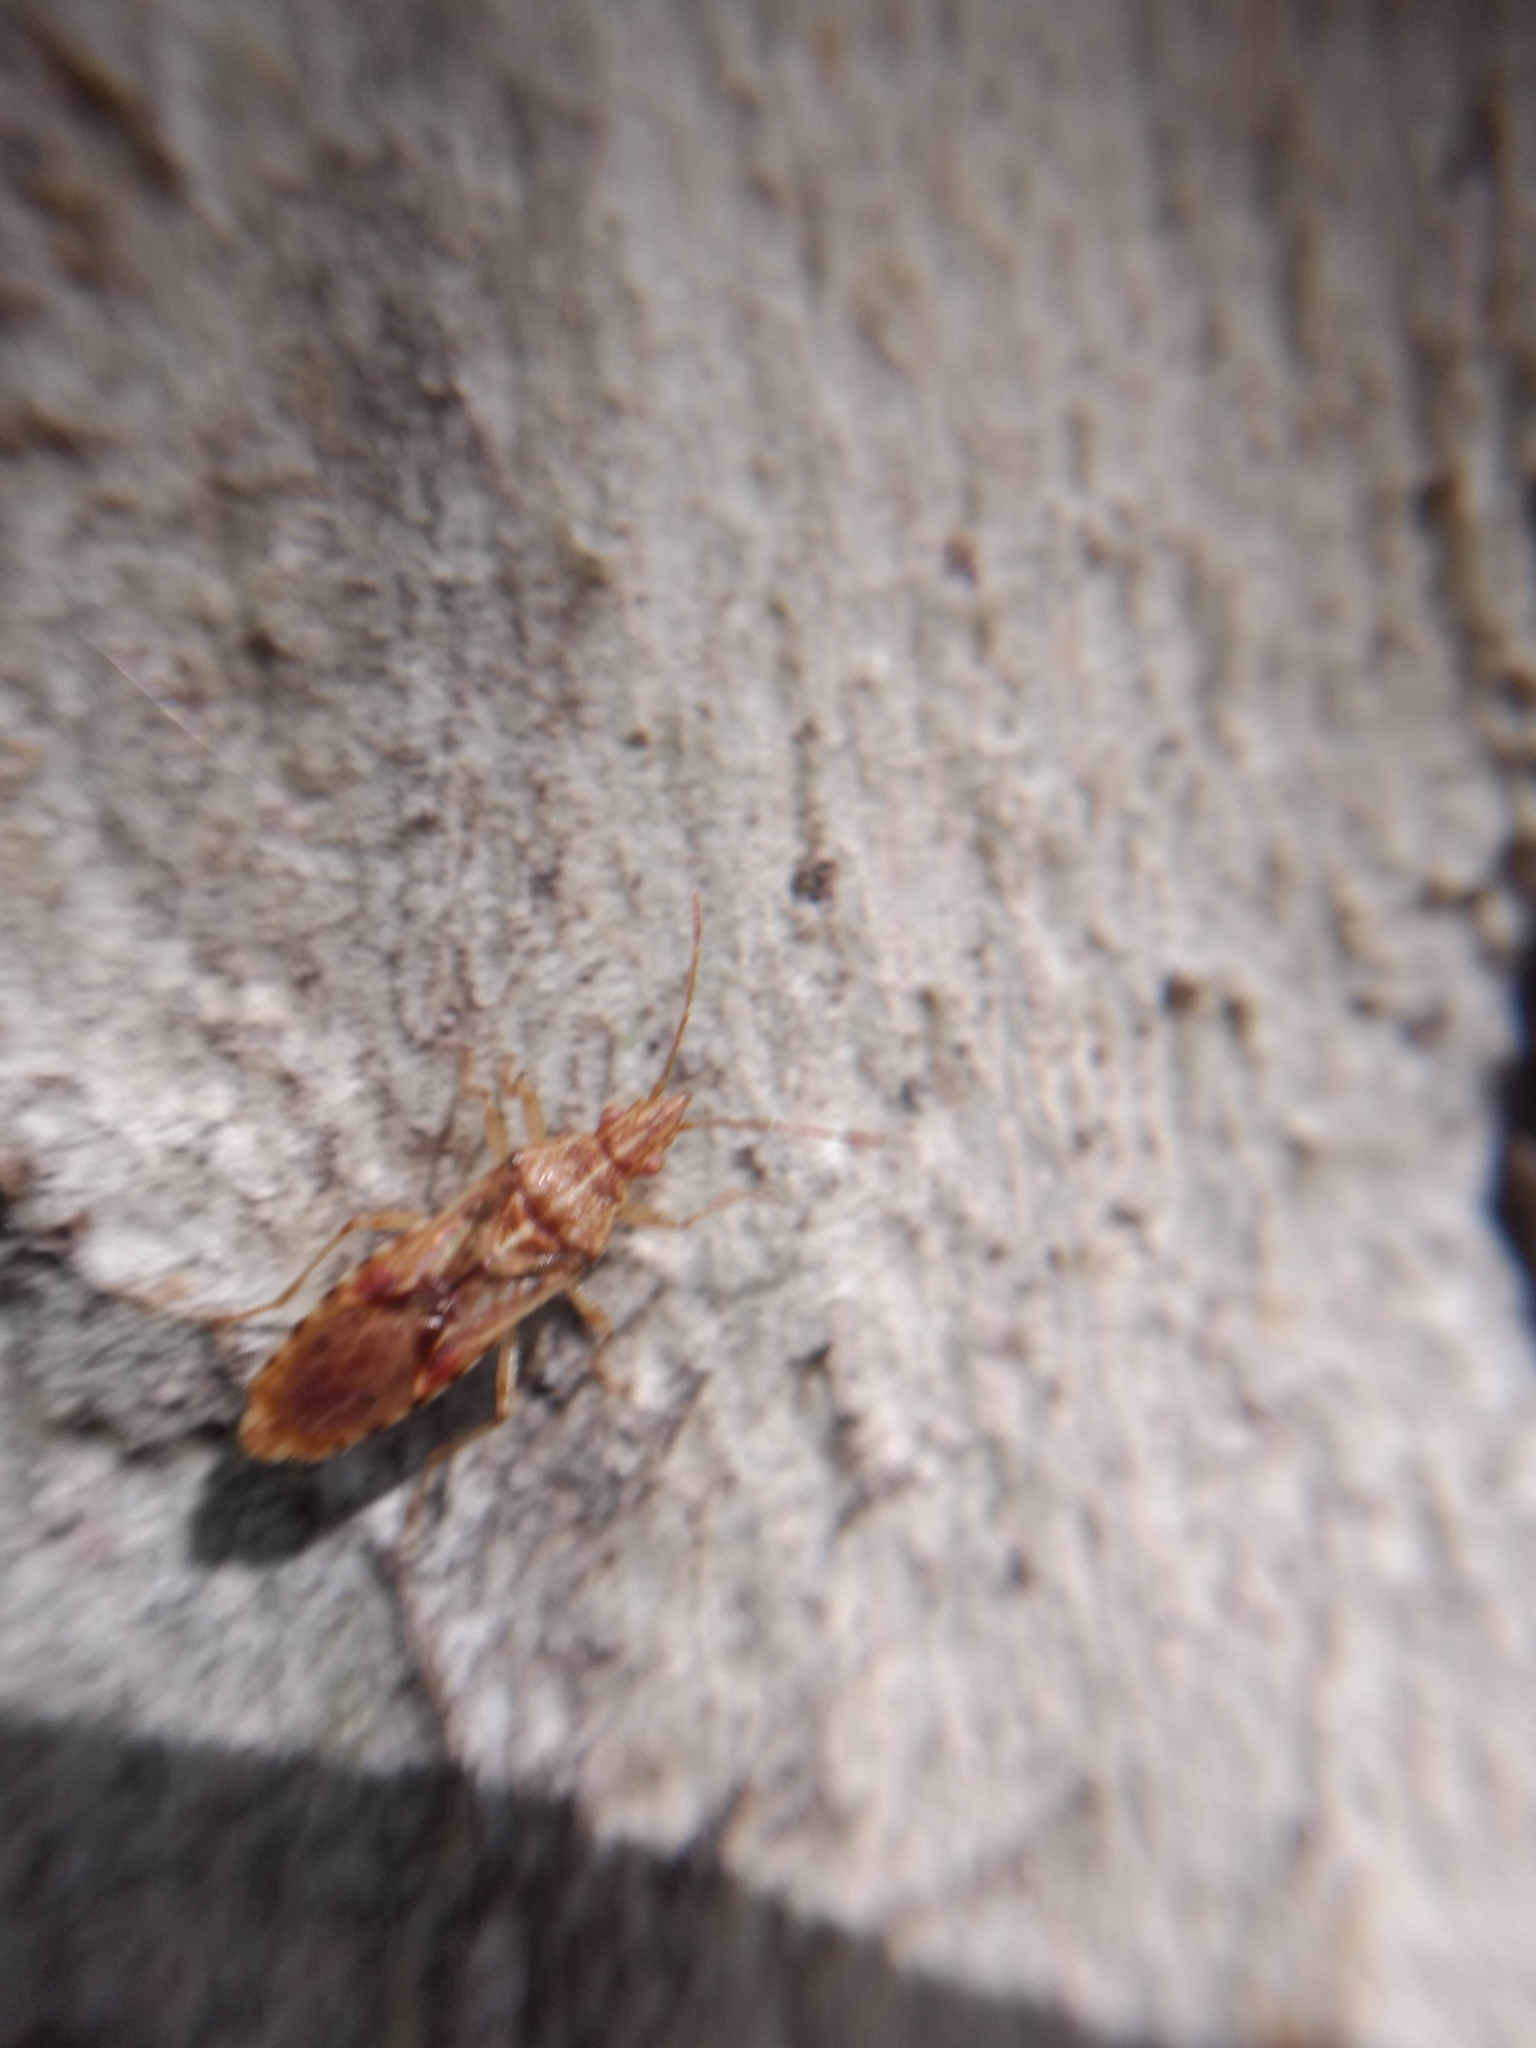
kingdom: Animalia
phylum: Arthropoda
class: Insecta
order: Hemiptera
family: Lygaeidae
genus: Belonochilus
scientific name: Belonochilus numenius
